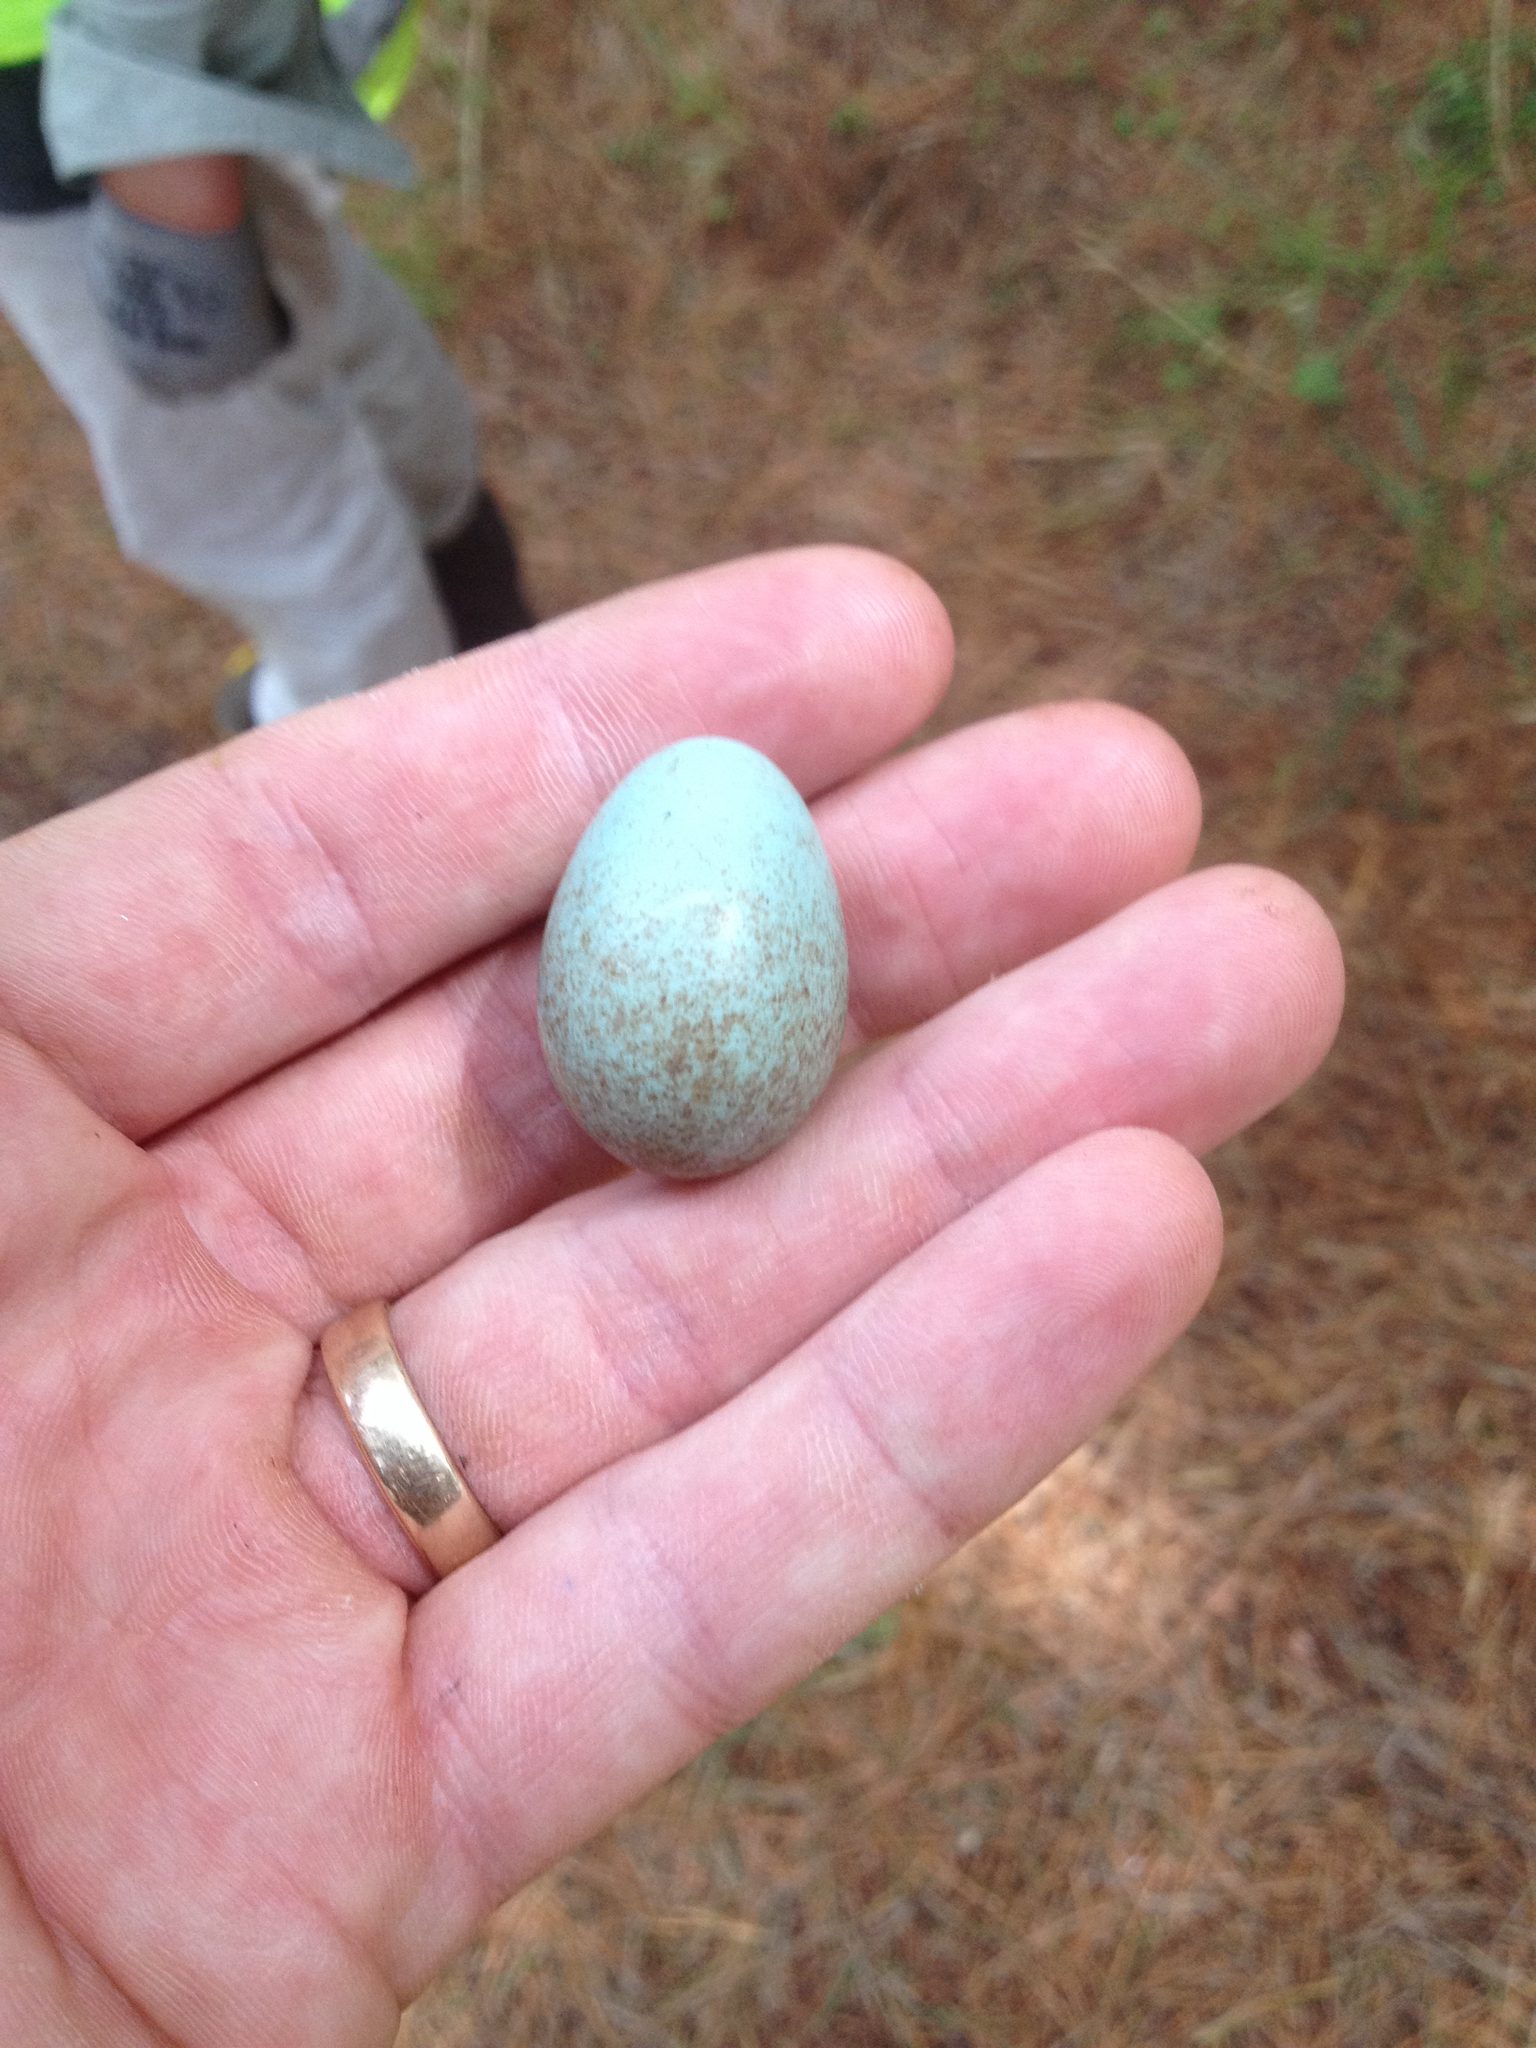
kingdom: Animalia
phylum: Chordata
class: Aves
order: Passeriformes
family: Turdidae
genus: Turdus
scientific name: Turdus merula
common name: Common blackbird
